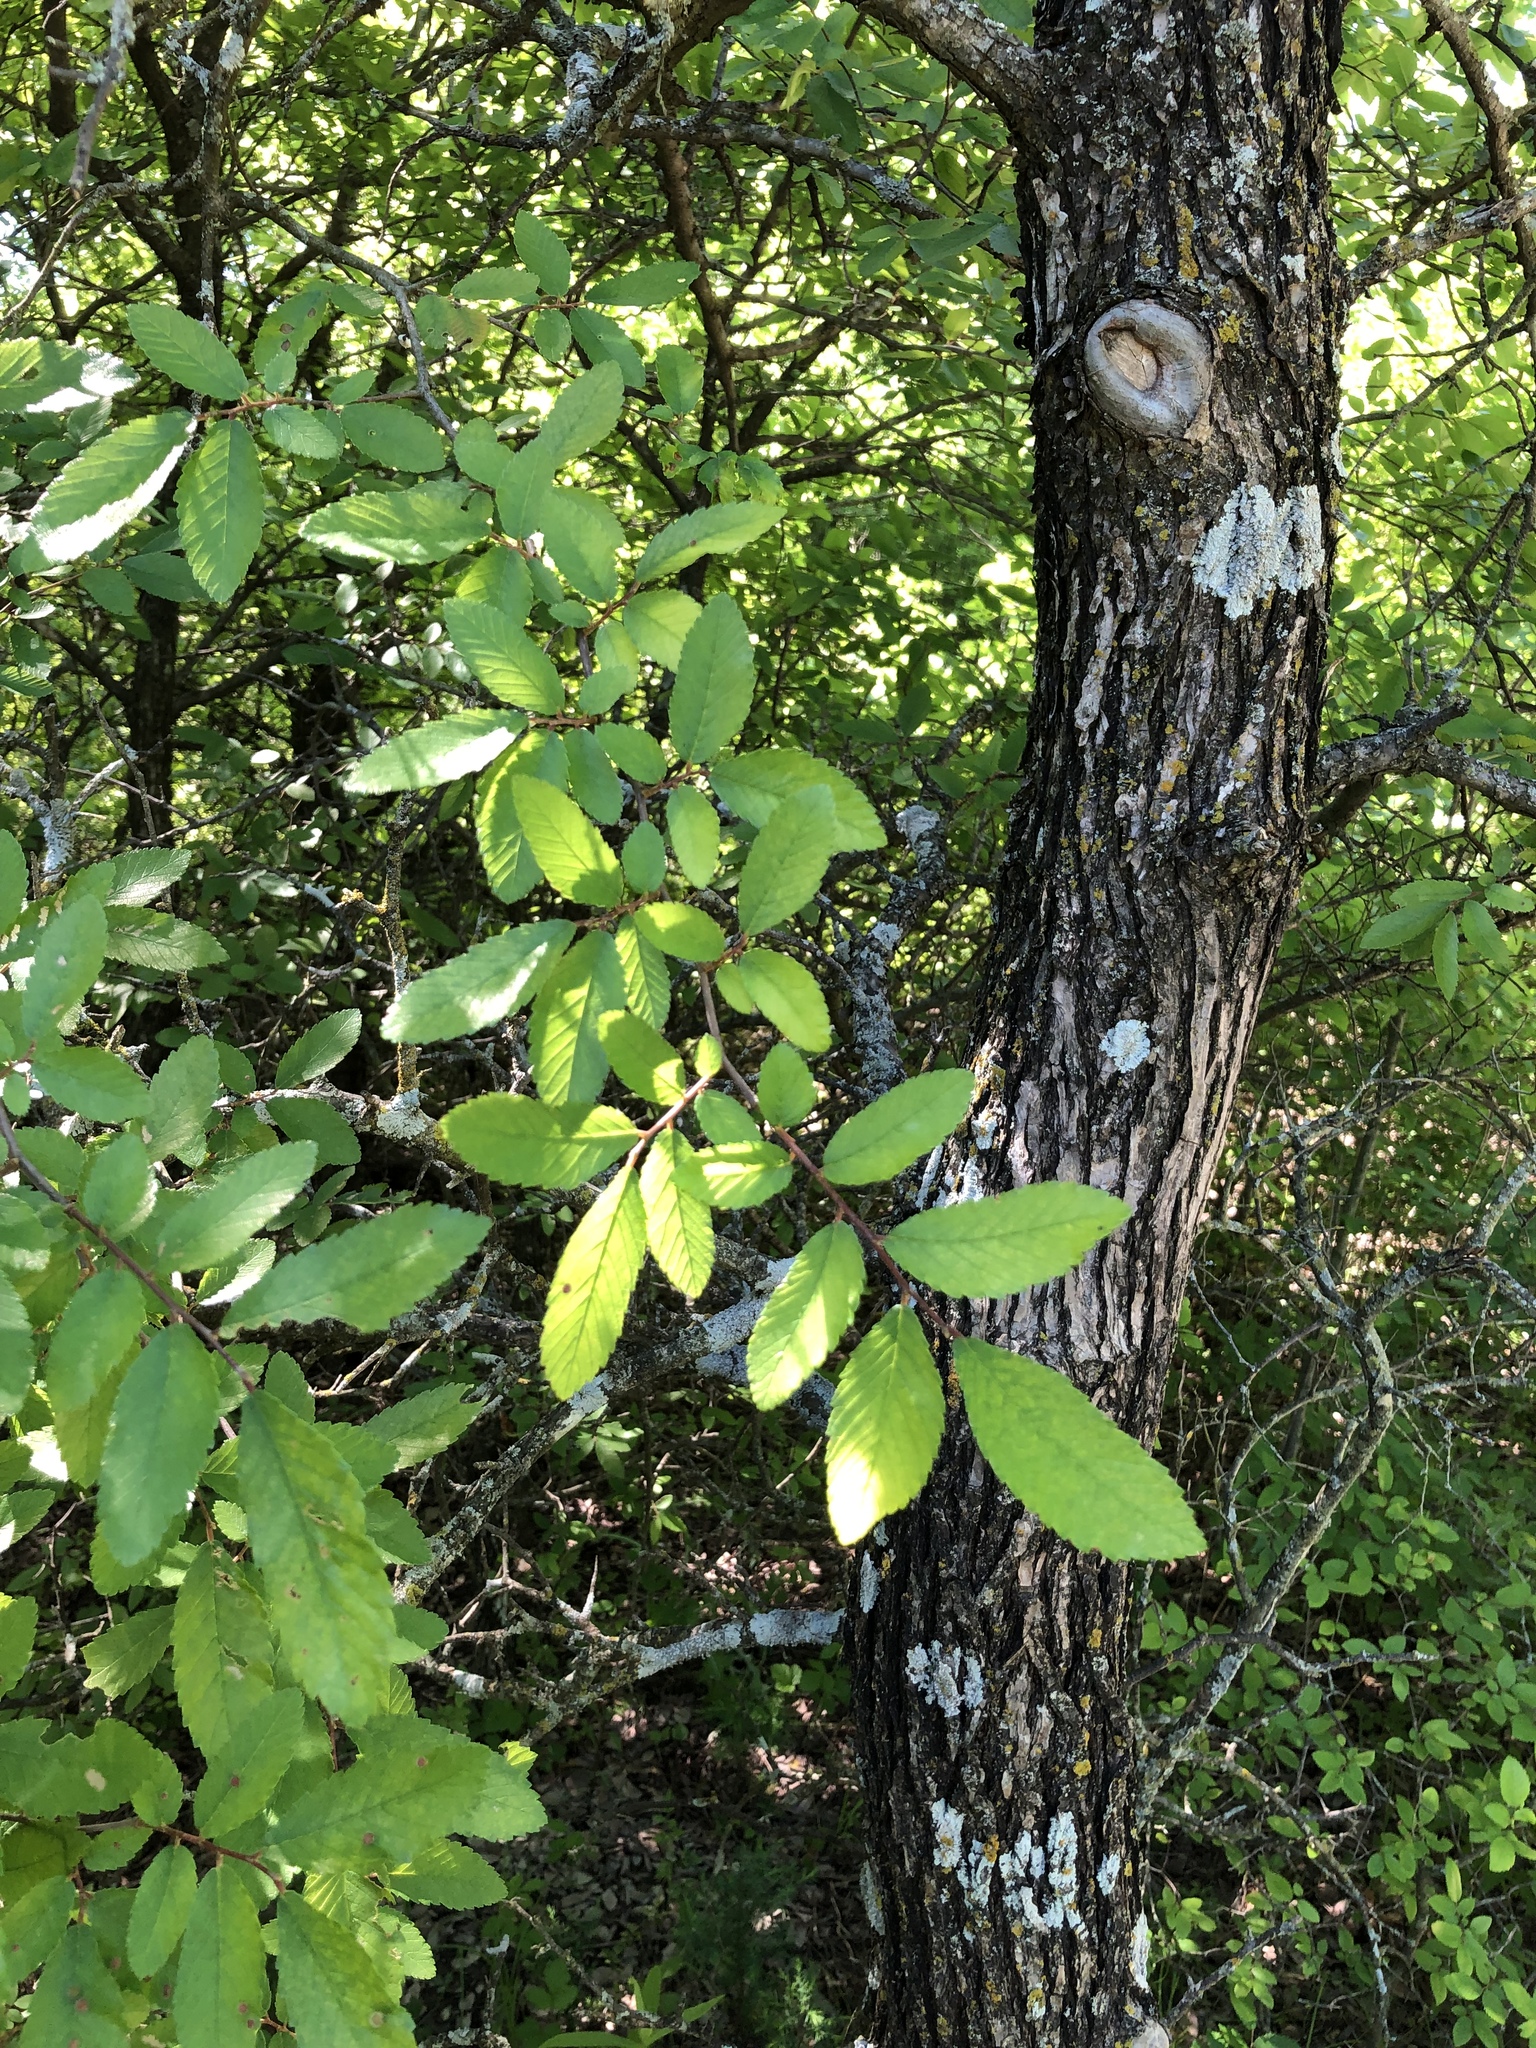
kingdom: Plantae
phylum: Tracheophyta
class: Magnoliopsida
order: Rosales
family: Ulmaceae
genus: Ulmus
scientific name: Ulmus crassifolia
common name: Basket elm
